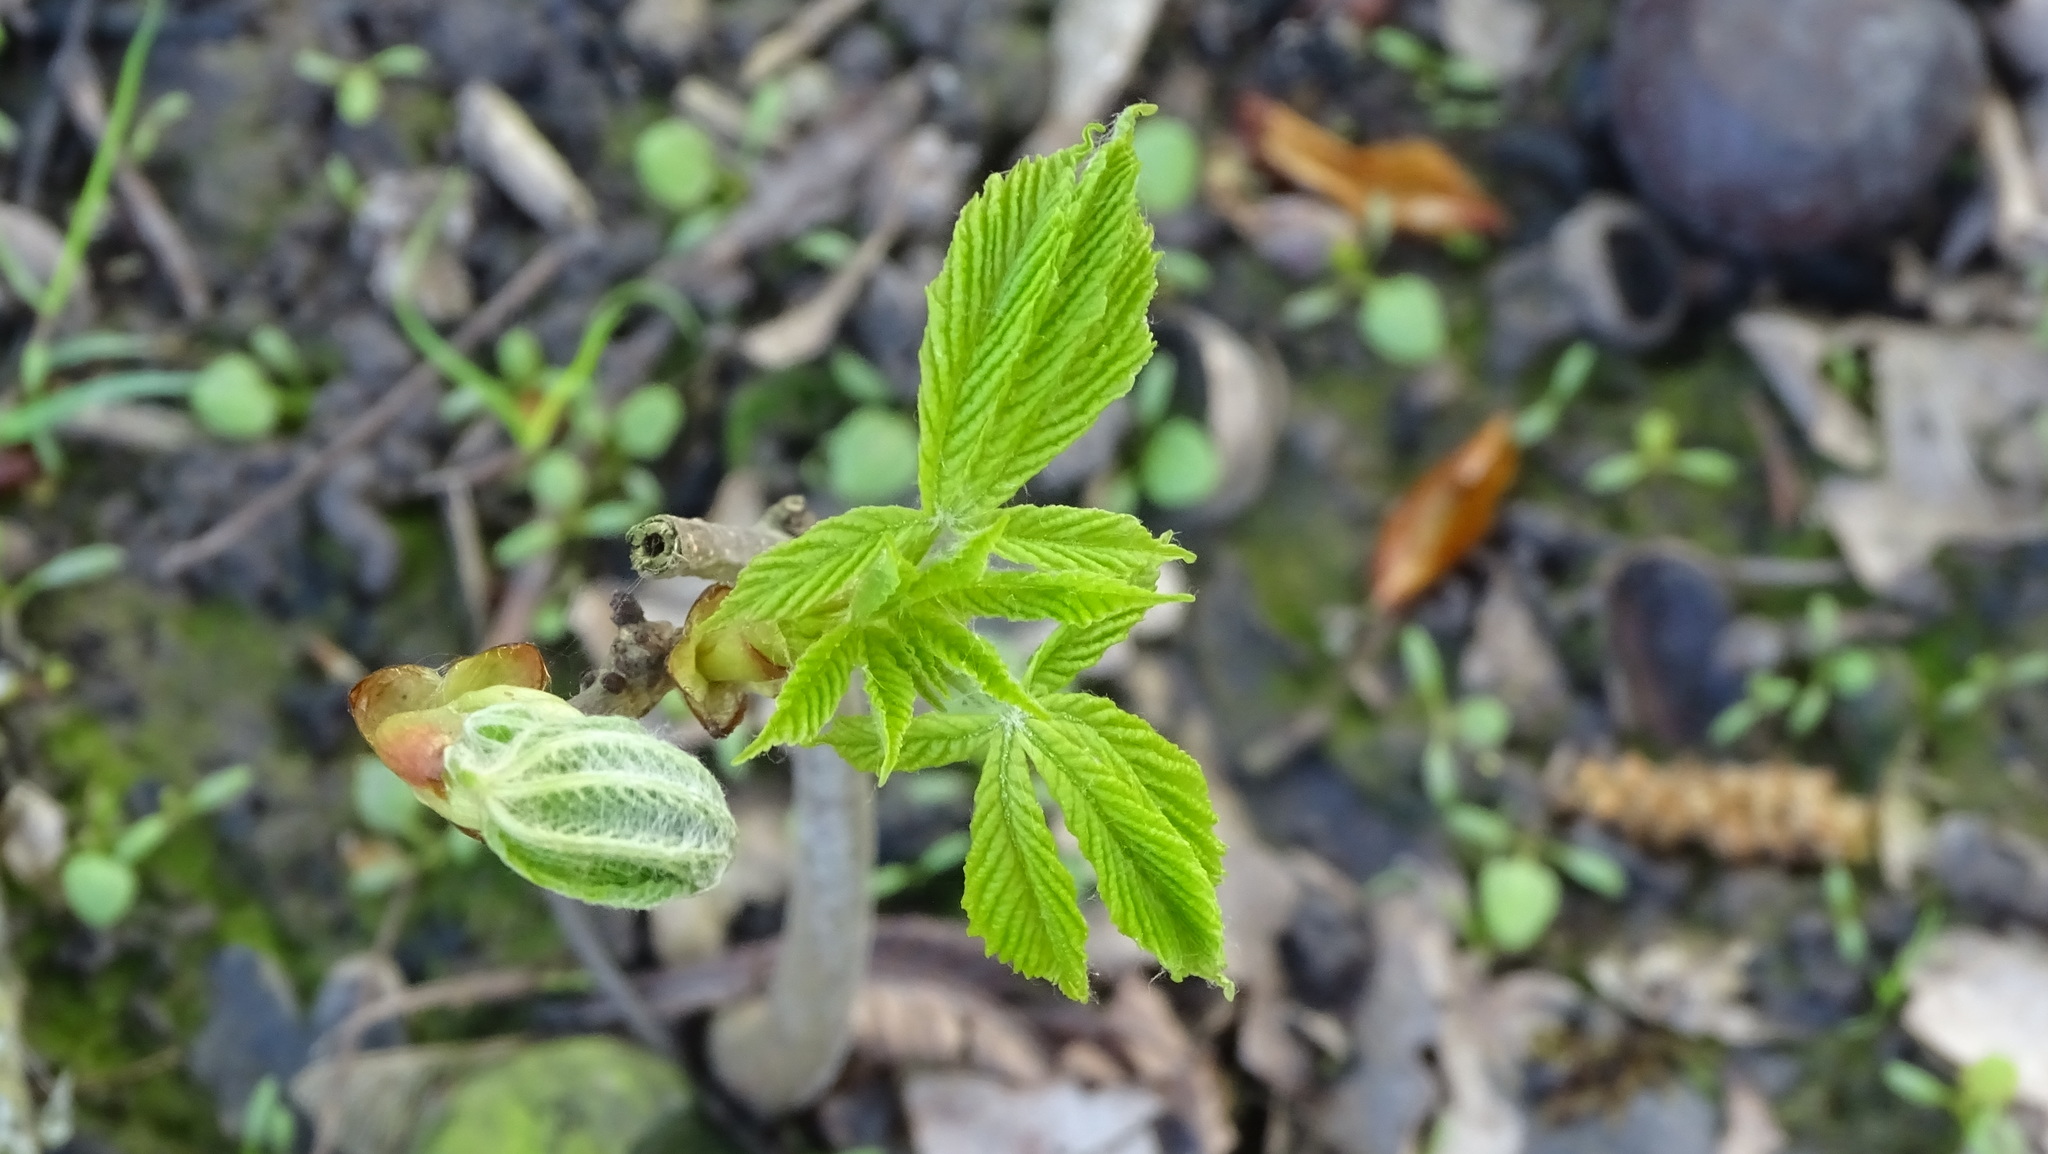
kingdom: Plantae
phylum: Tracheophyta
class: Magnoliopsida
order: Sapindales
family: Sapindaceae
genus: Aesculus
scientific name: Aesculus hippocastanum
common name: Horse-chestnut
